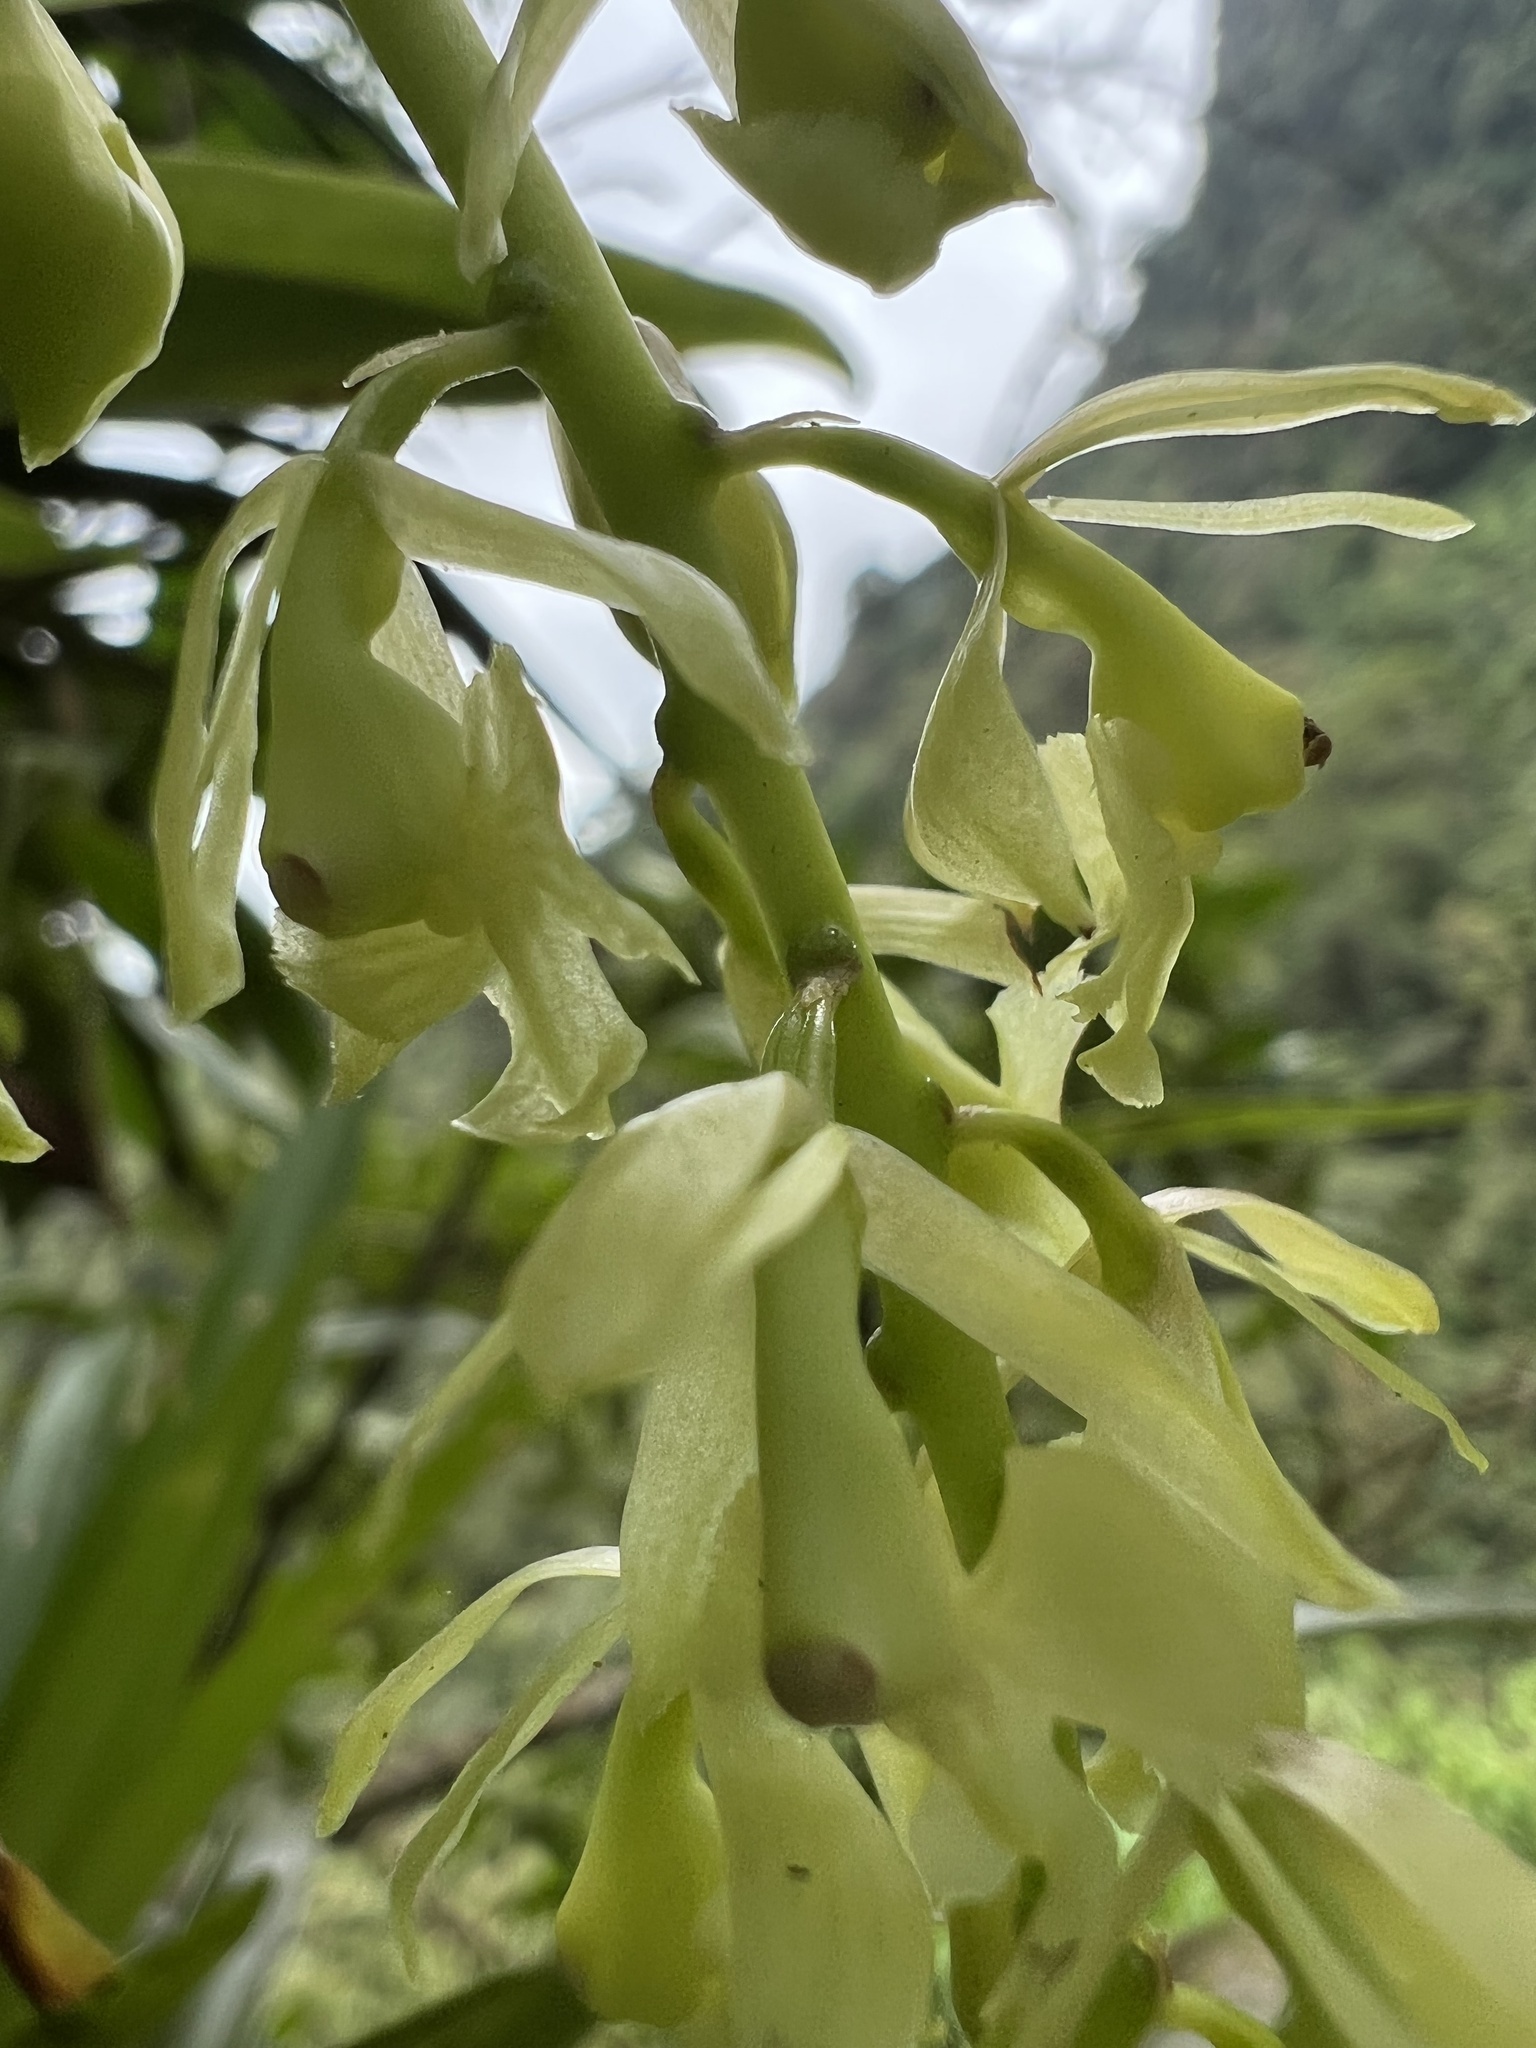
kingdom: Plantae
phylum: Tracheophyta
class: Liliopsida
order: Asparagales
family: Orchidaceae
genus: Epidendrum
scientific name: Epidendrum excisum
